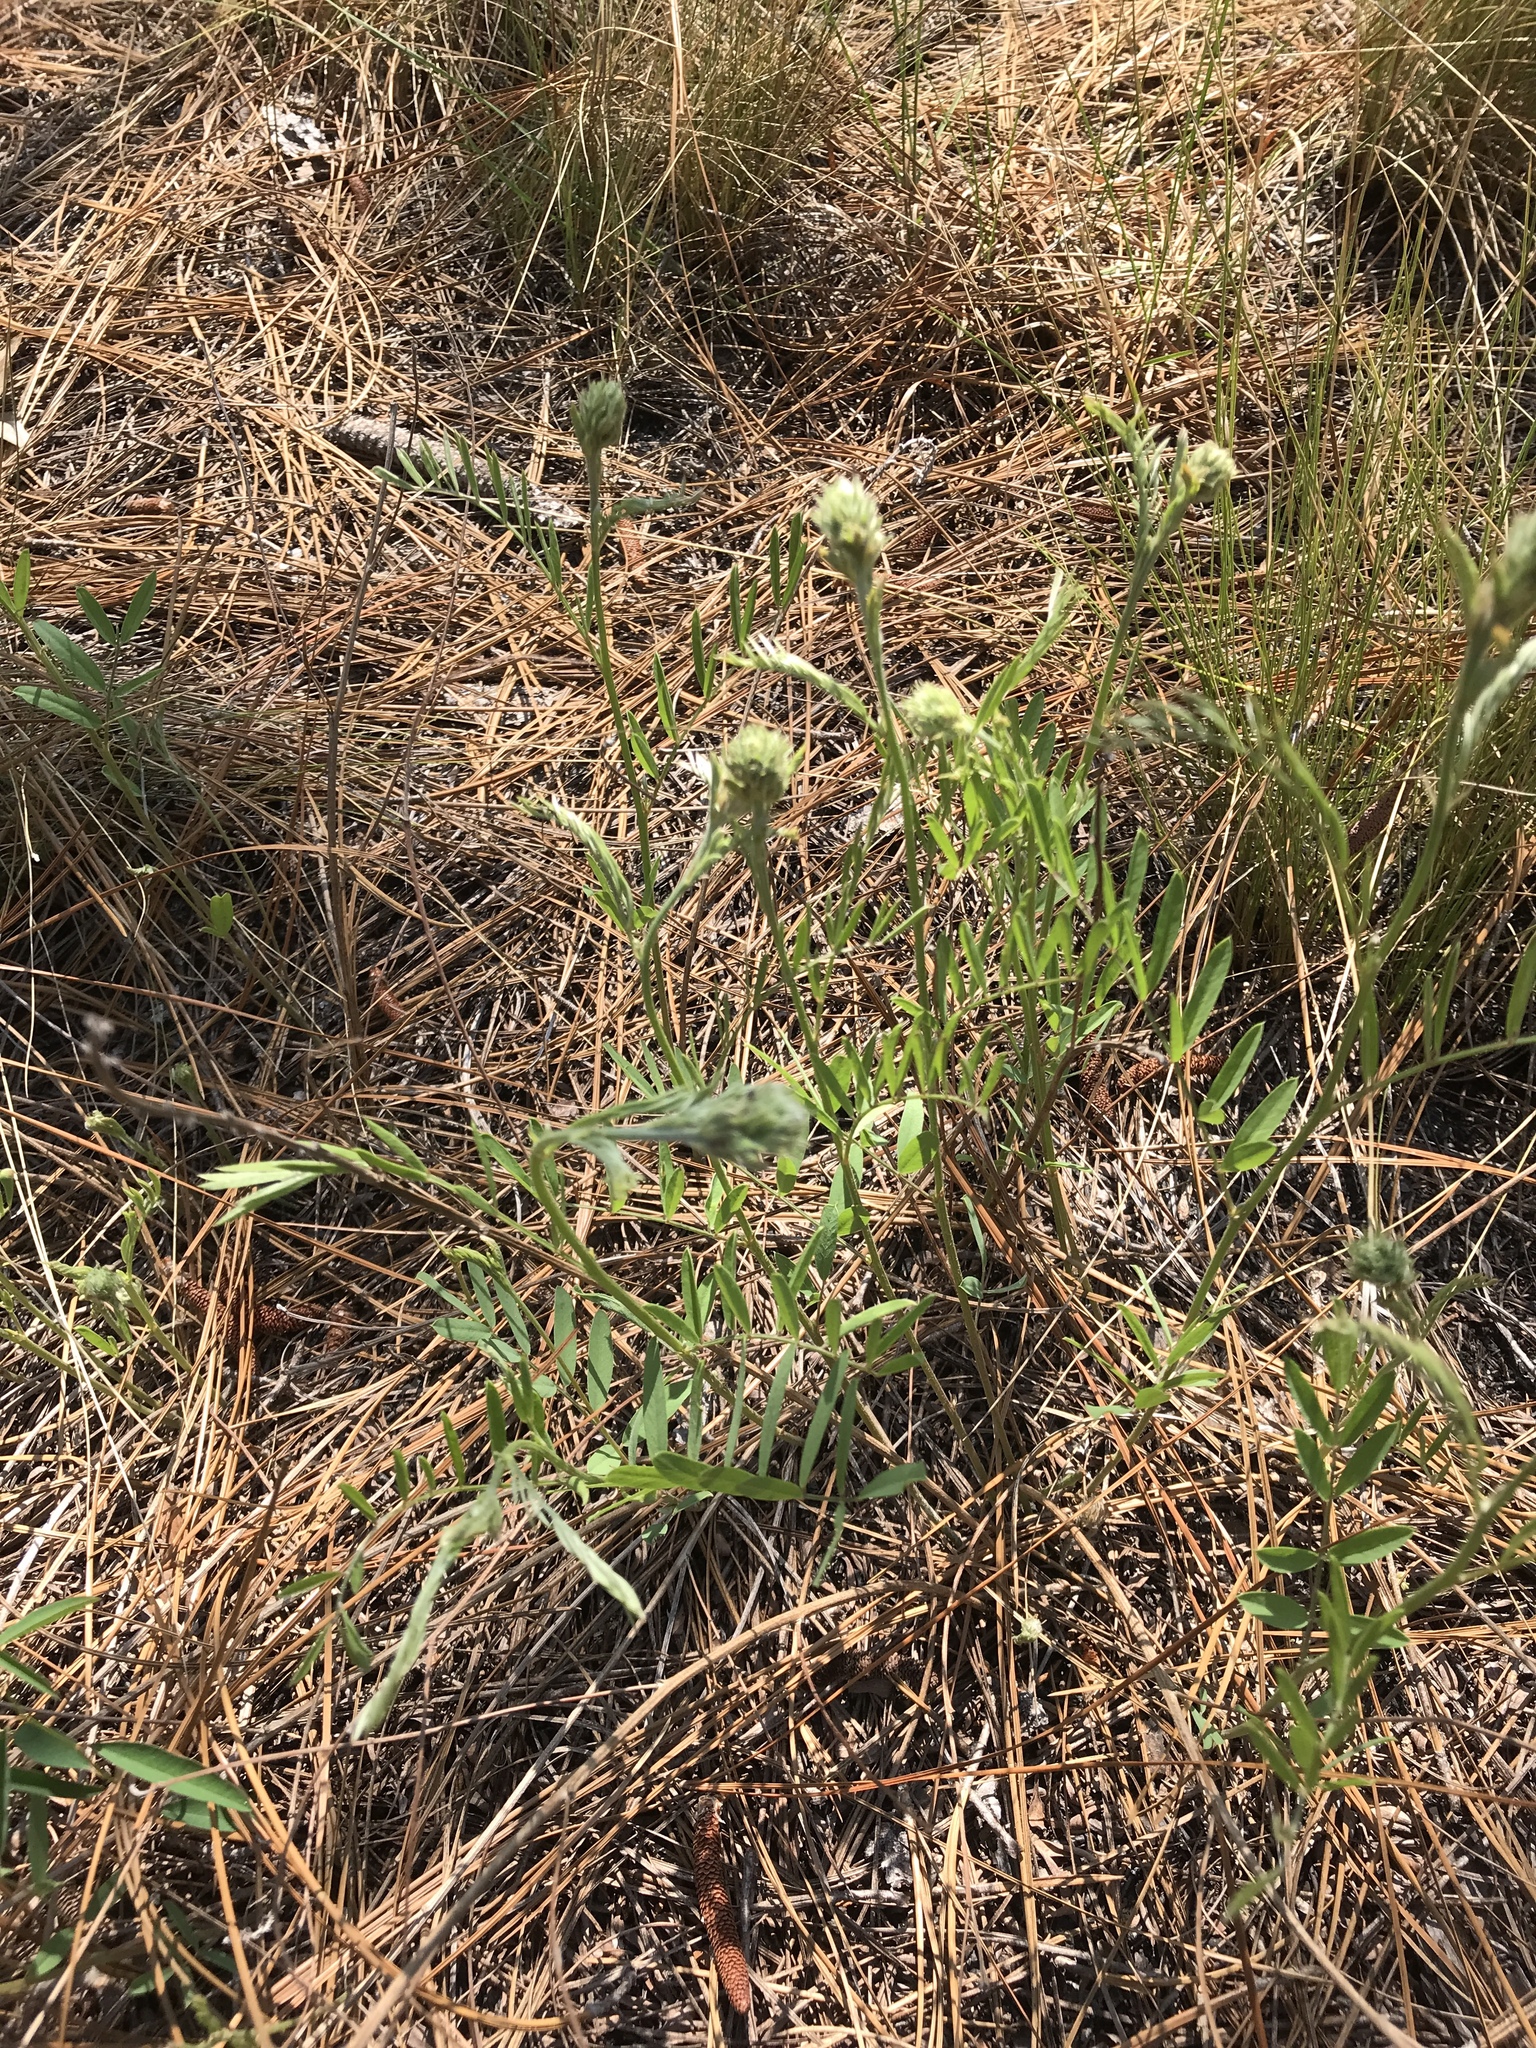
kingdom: Plantae
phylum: Tracheophyta
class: Magnoliopsida
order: Fabales
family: Fabaceae
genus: Tephrosia
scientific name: Tephrosia virginiana
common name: Rabbit-pea
